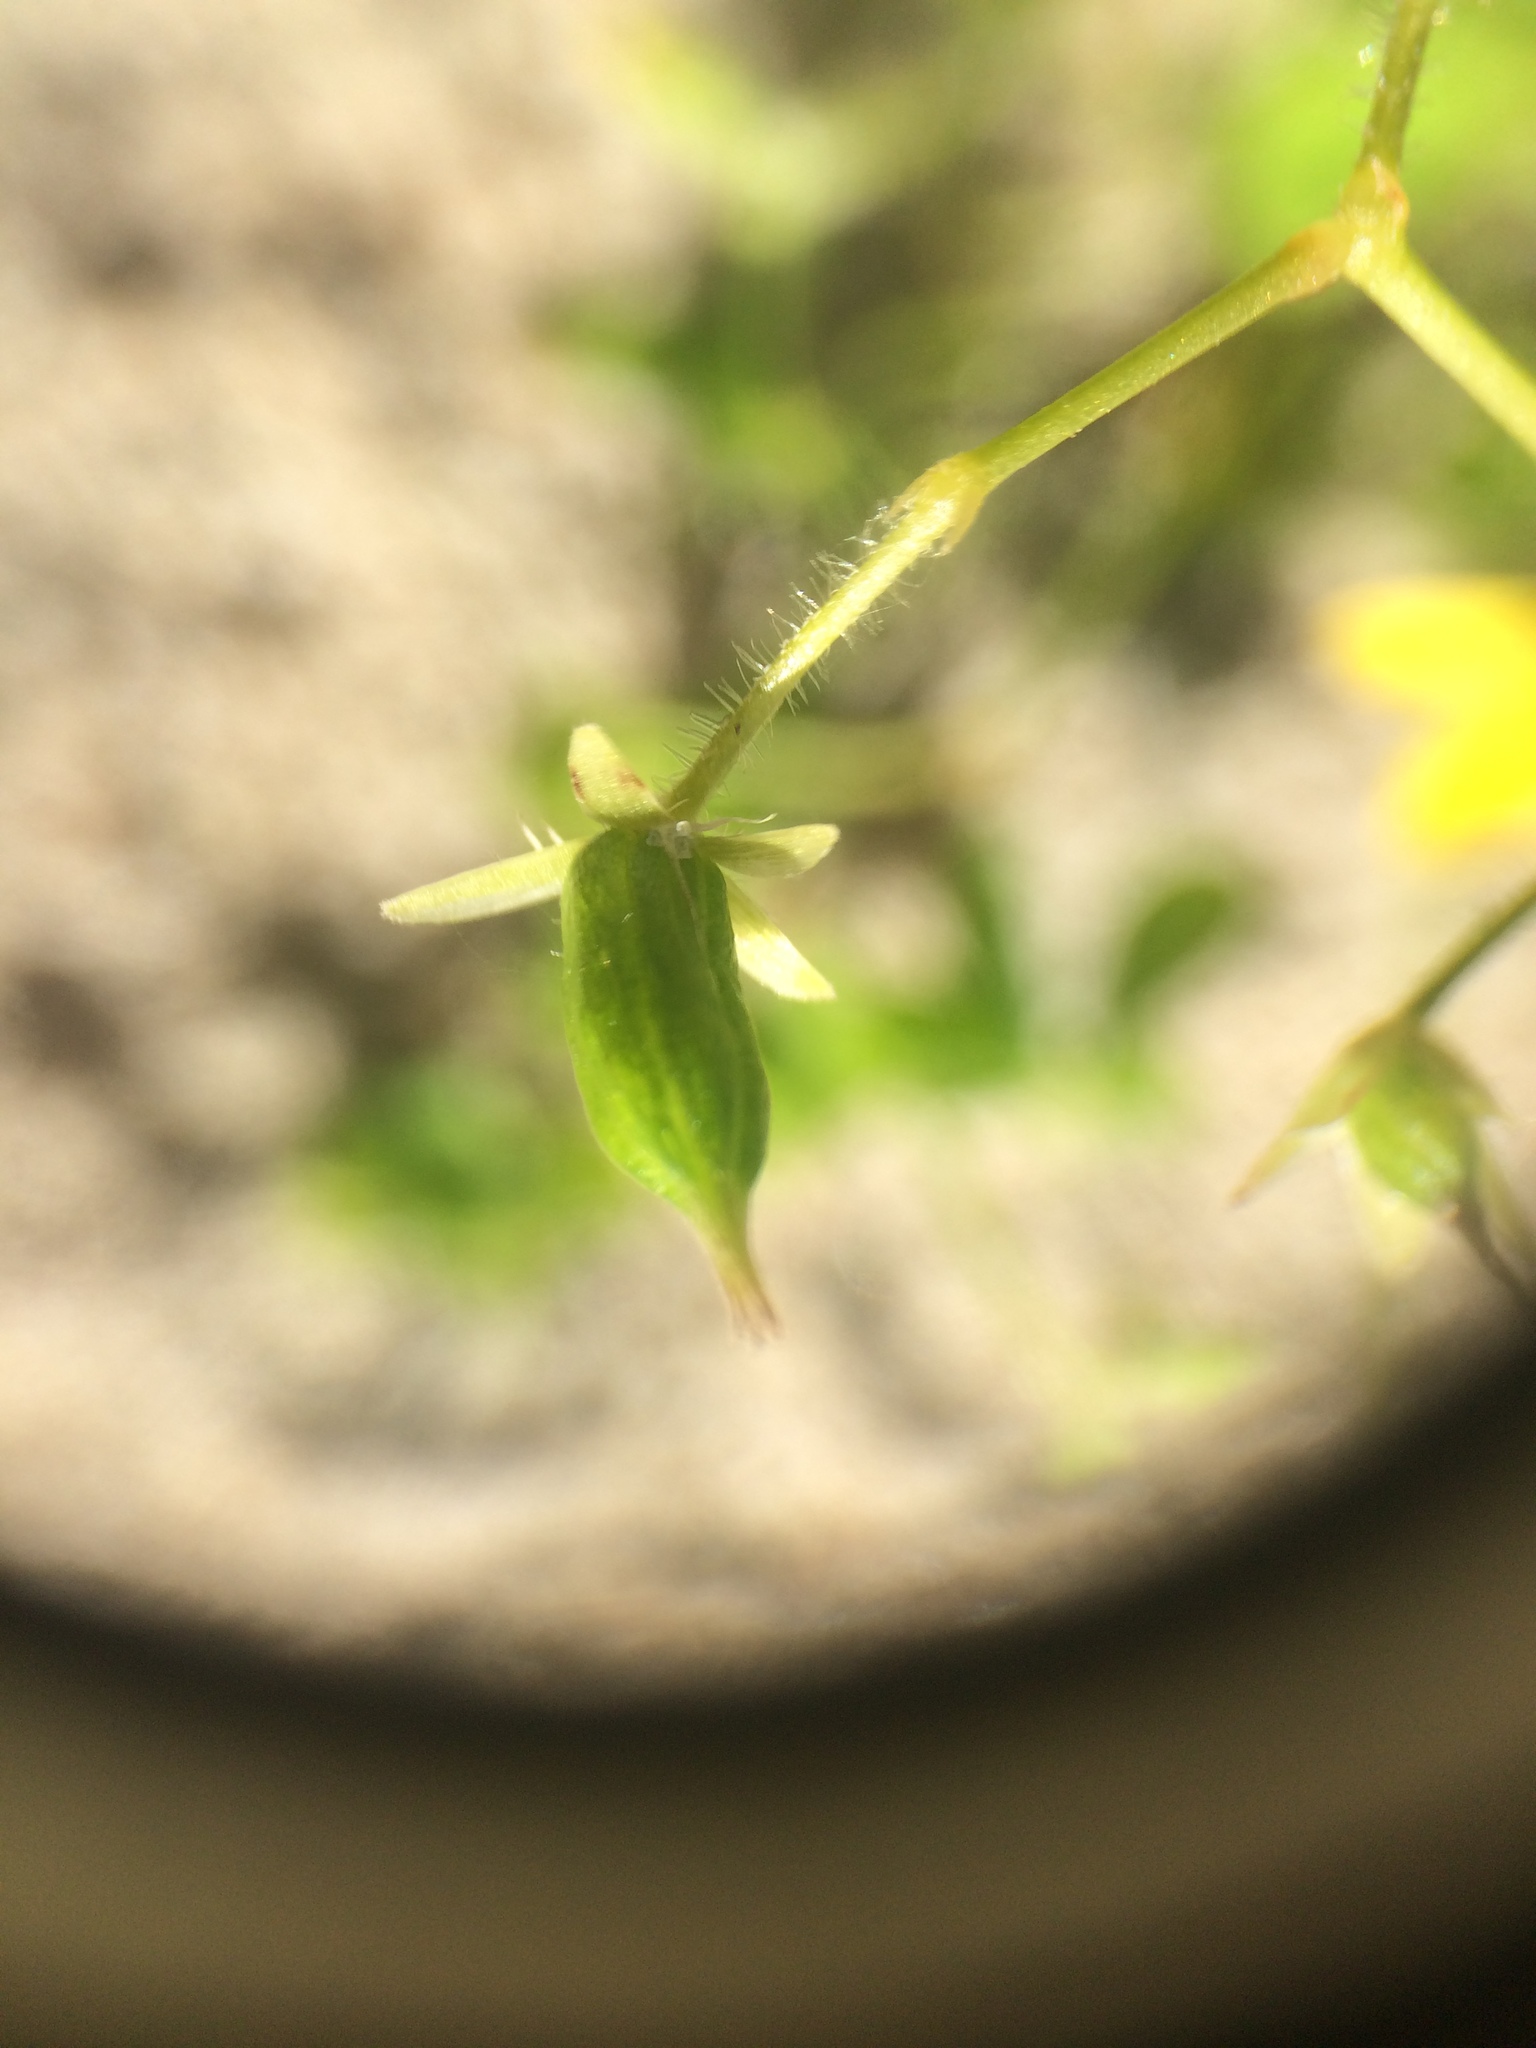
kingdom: Plantae
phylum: Tracheophyta
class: Magnoliopsida
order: Oxalidales
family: Oxalidaceae
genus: Oxalis
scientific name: Oxalis stricta
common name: Upright yellow-sorrel
